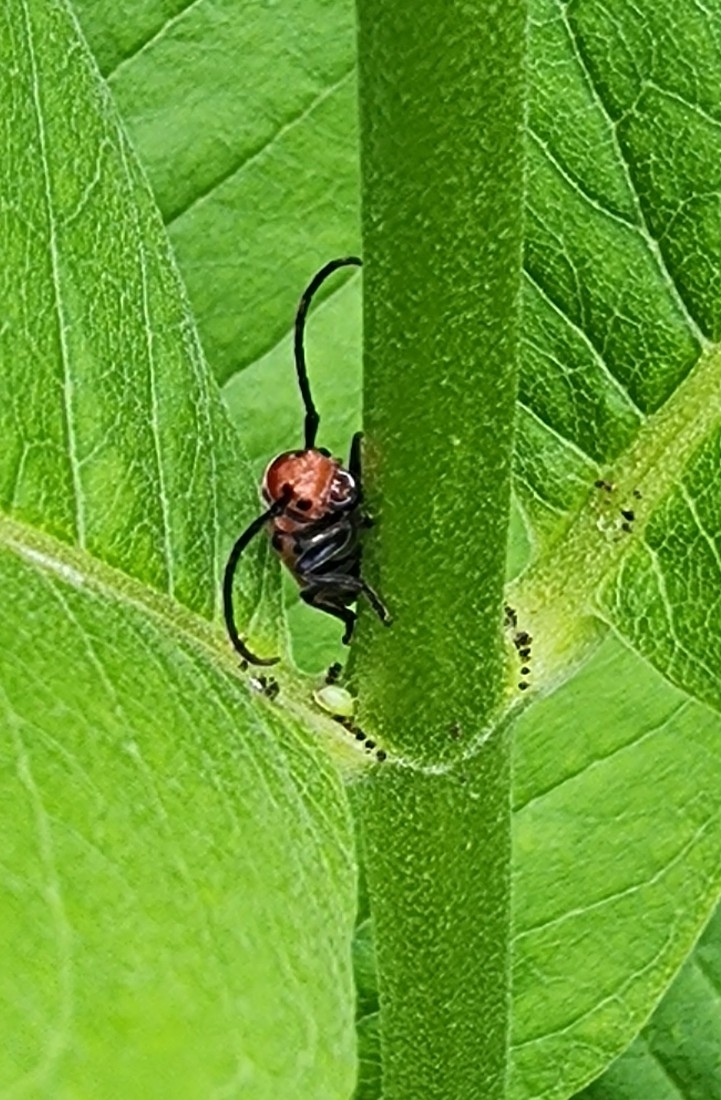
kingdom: Animalia
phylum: Arthropoda
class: Insecta
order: Coleoptera
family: Cerambycidae
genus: Tetraopes
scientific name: Tetraopes tetrophthalmus
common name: Red milkweed beetle
